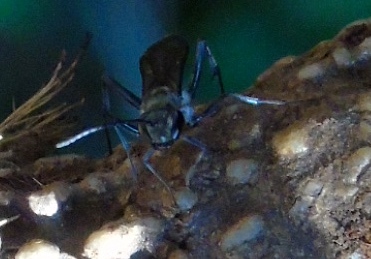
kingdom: Animalia
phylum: Arthropoda
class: Insecta
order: Hymenoptera
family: Sphecidae
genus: Chalybion
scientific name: Chalybion zimmermanni
